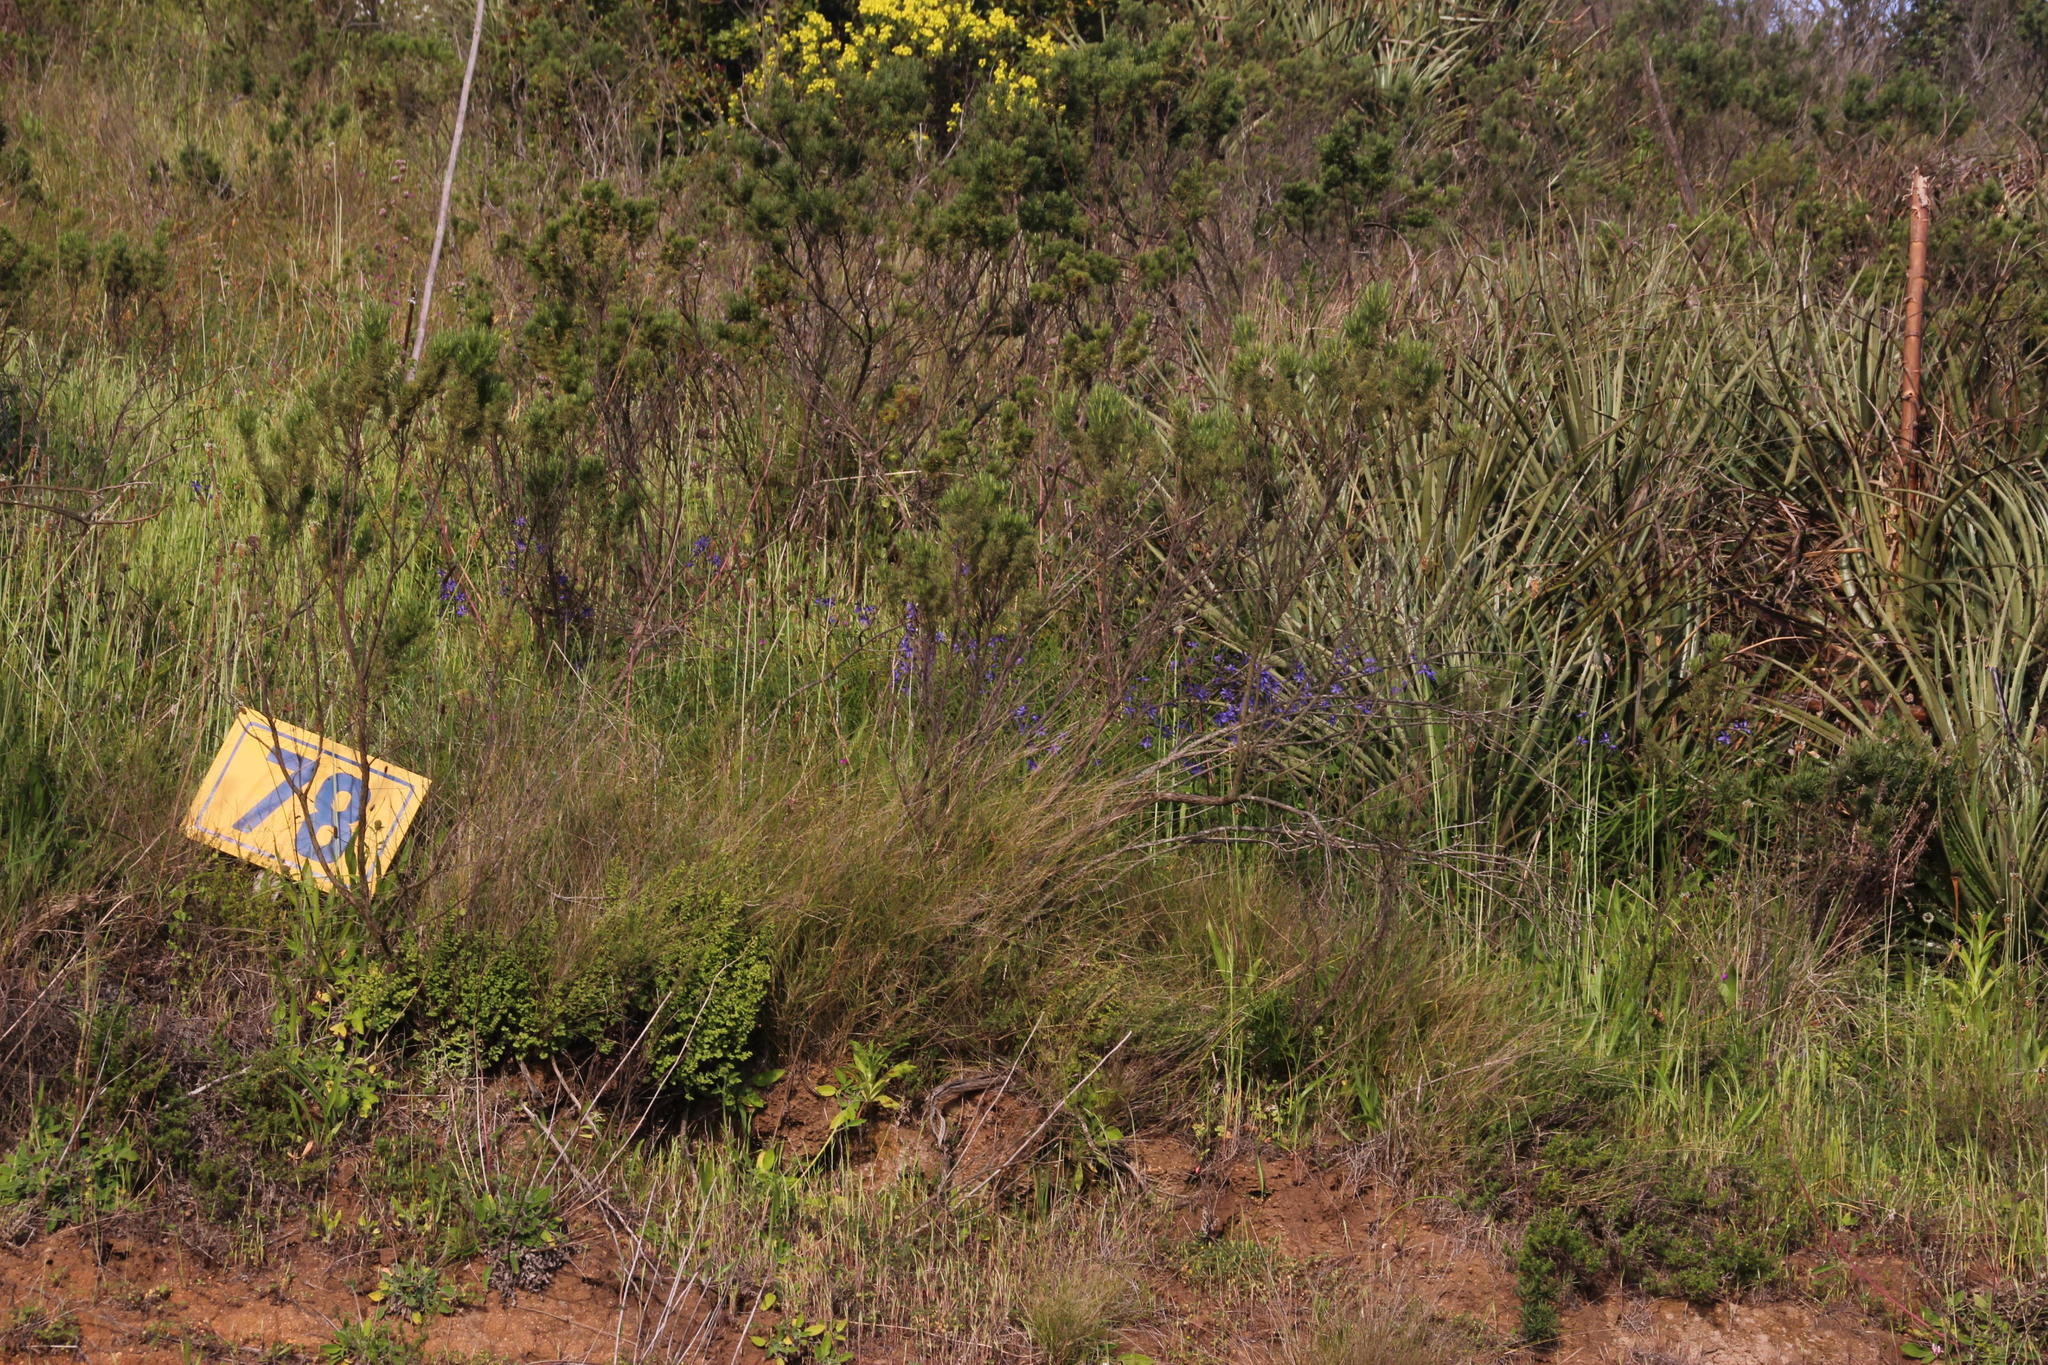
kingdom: Plantae
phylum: Tracheophyta
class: Liliopsida
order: Asparagales
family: Asphodelaceae
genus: Pasithea
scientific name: Pasithea caerulea
